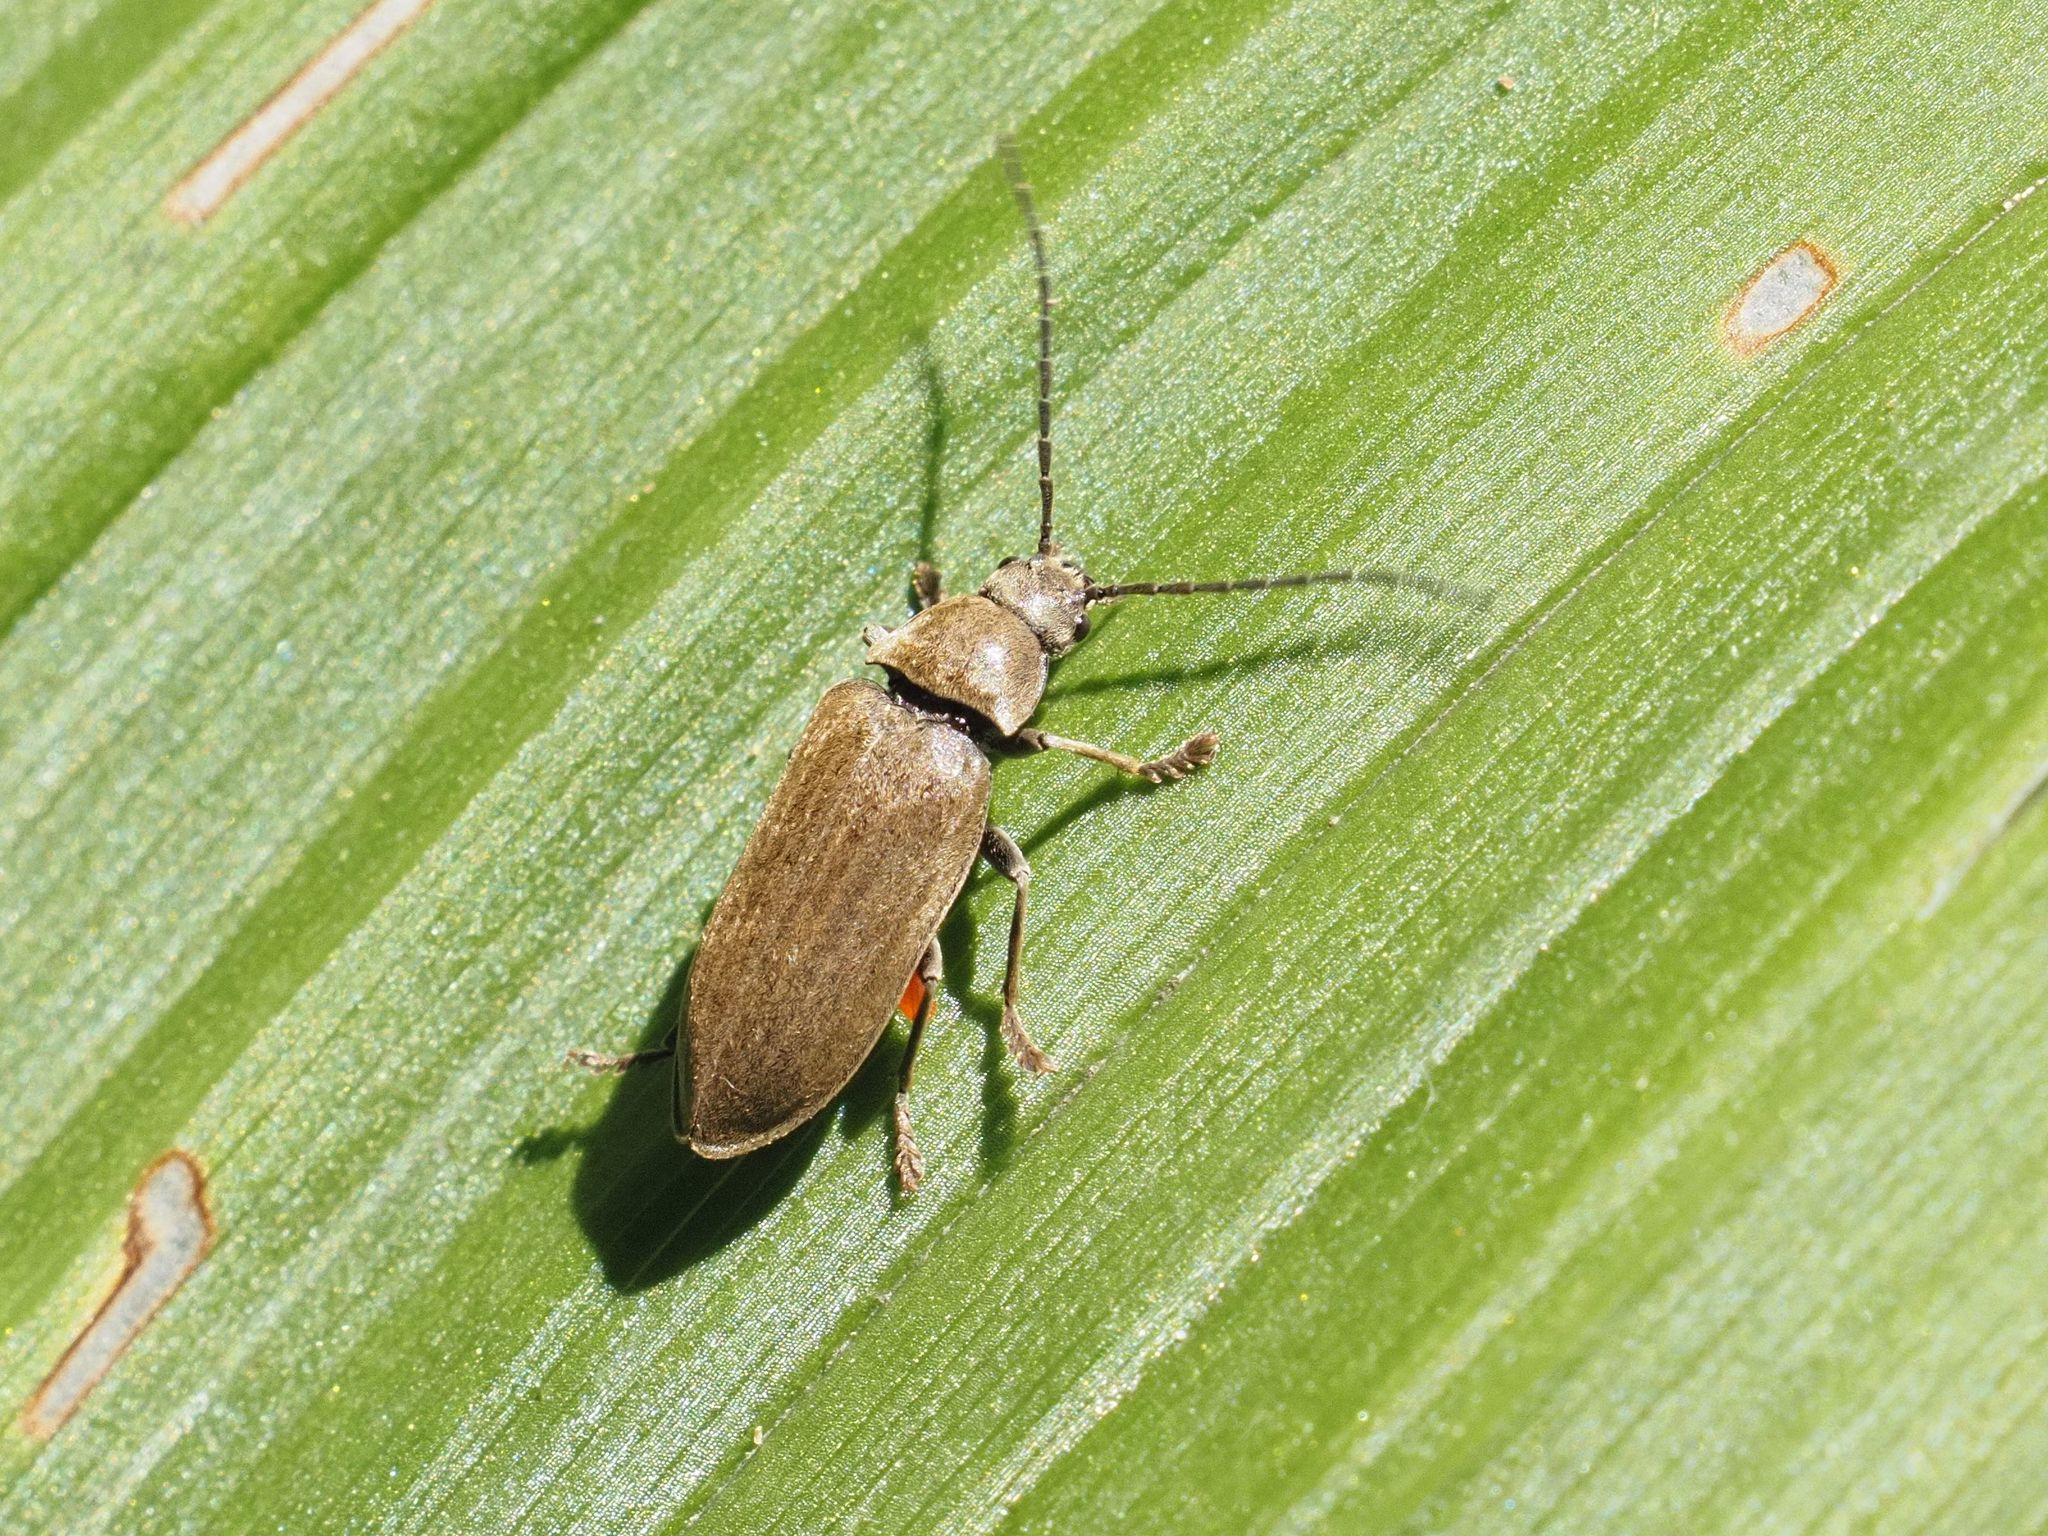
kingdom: Animalia
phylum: Arthropoda
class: Insecta
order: Coleoptera
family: Dascillidae
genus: Dascillus
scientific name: Dascillus cervinus
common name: Orchid beetle
